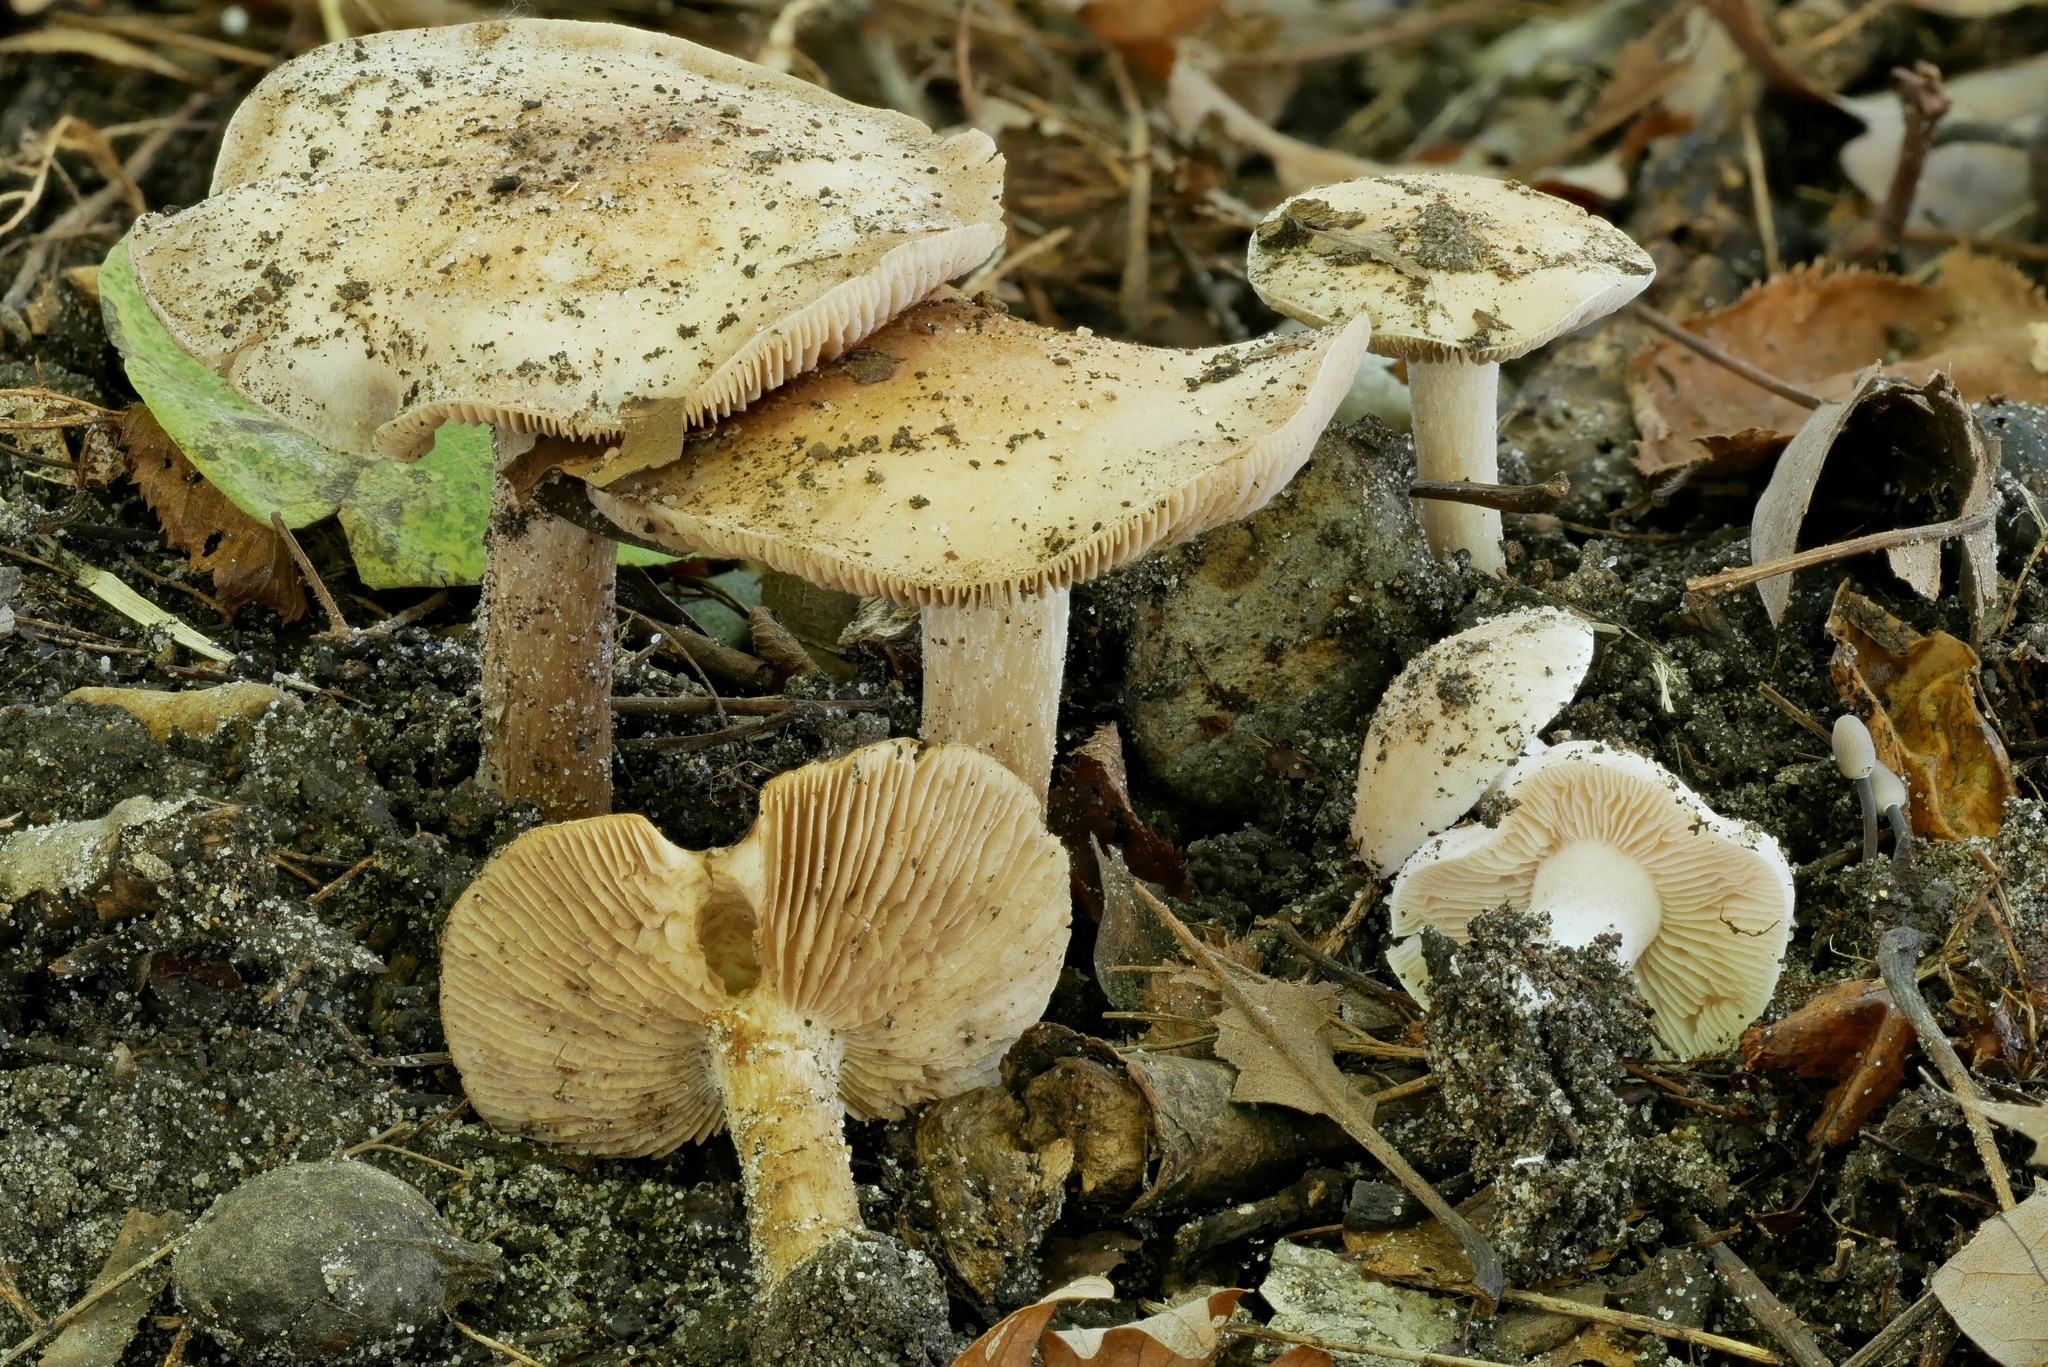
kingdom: Fungi
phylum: Basidiomycota
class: Agaricomycetes
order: Agaricales
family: Hymenogastraceae
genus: Hebeloma
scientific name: Hebeloma caulocystidiosum
